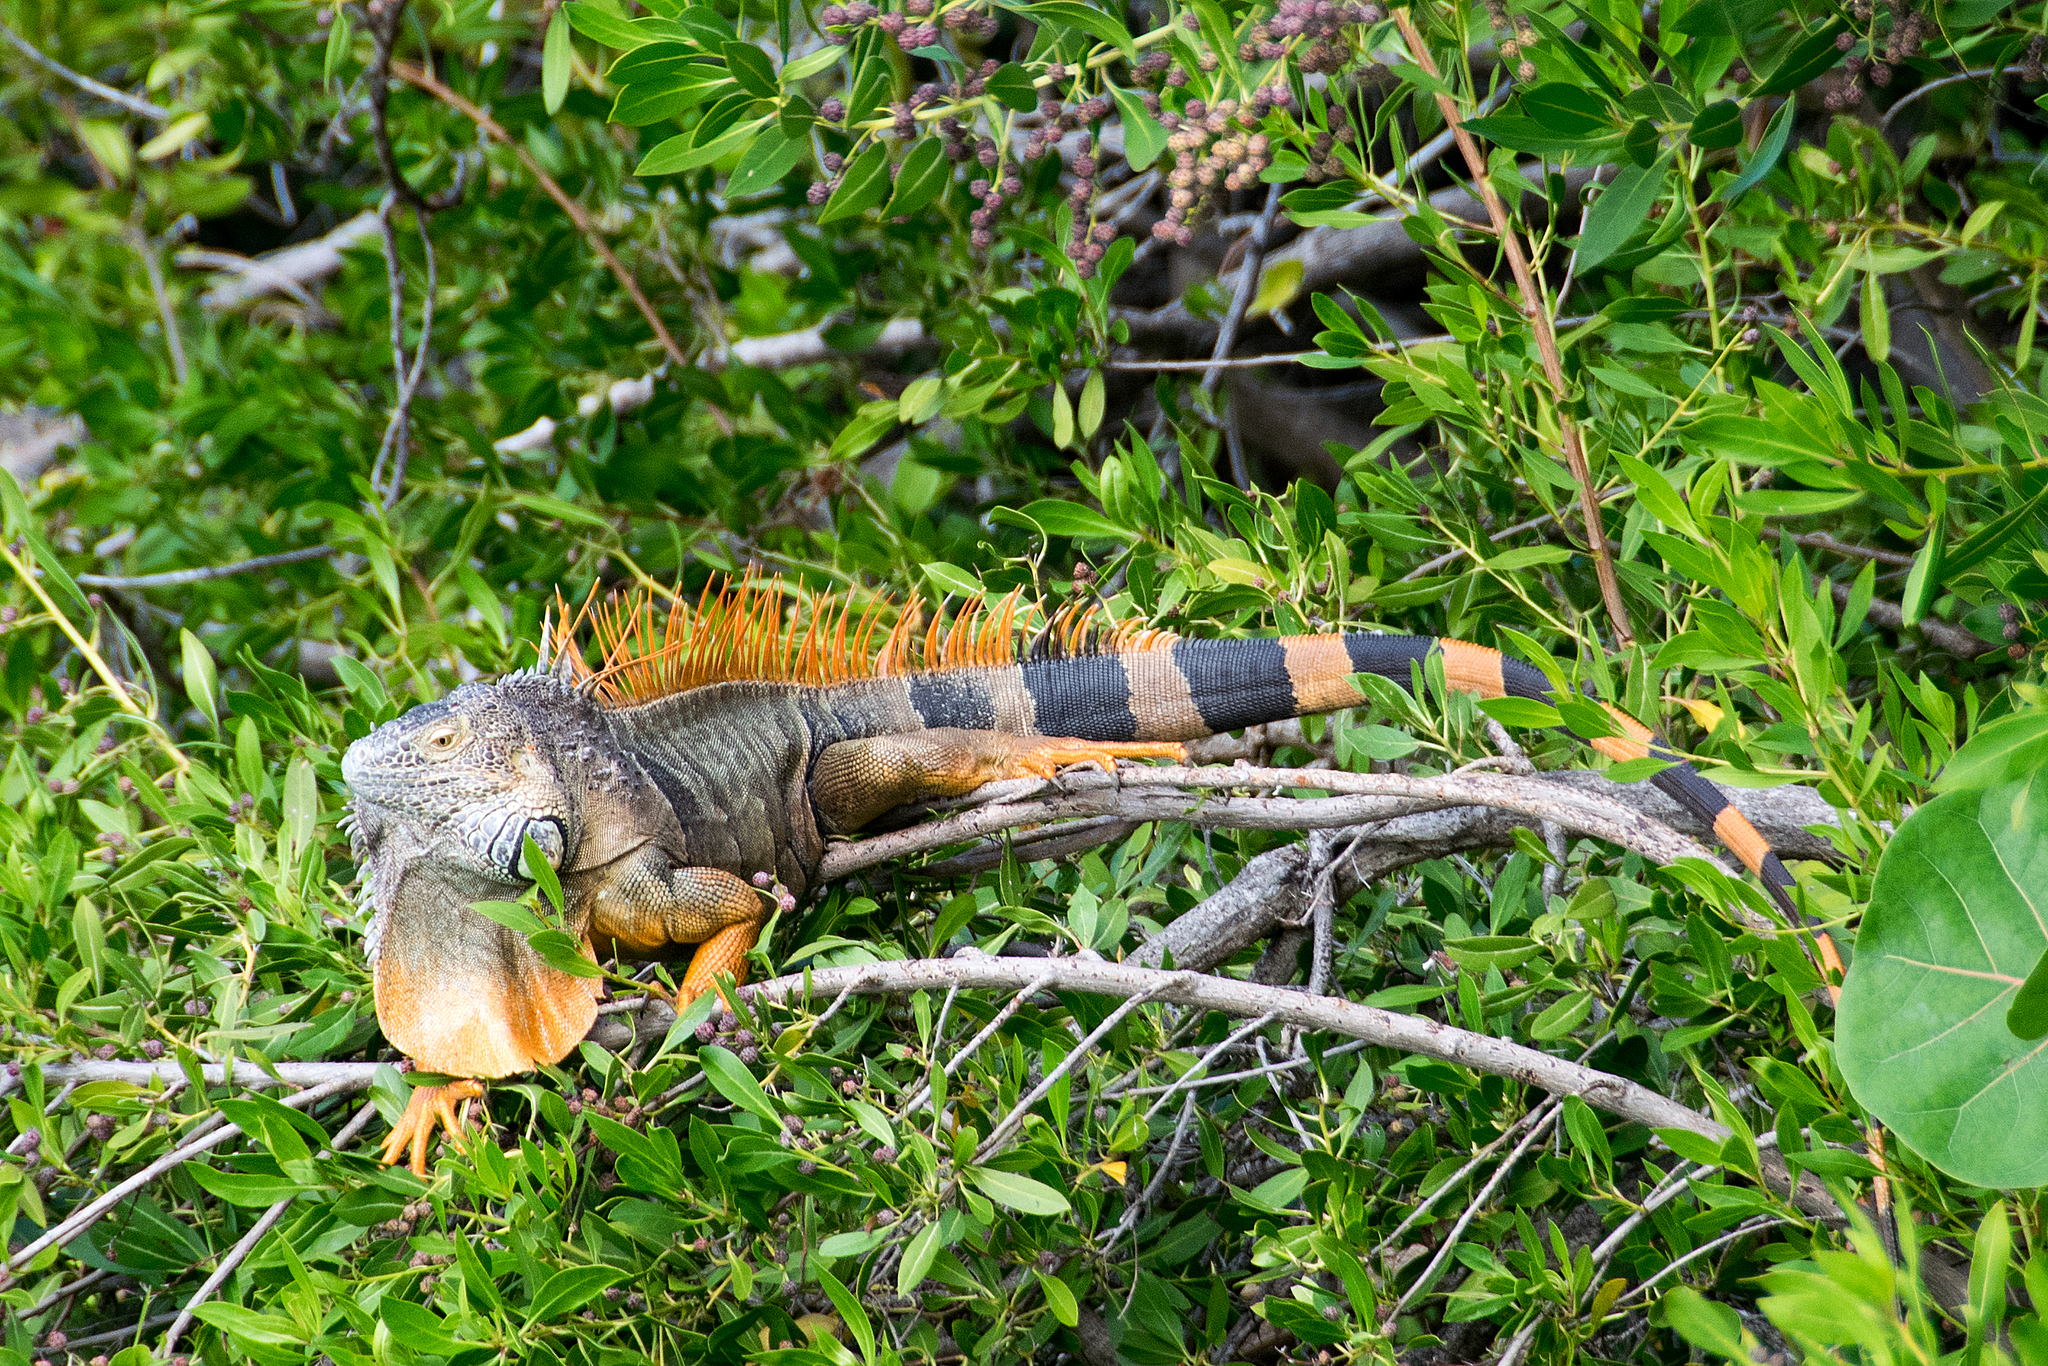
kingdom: Animalia
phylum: Chordata
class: Squamata
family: Iguanidae
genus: Iguana
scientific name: Iguana iguana
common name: Green iguana
